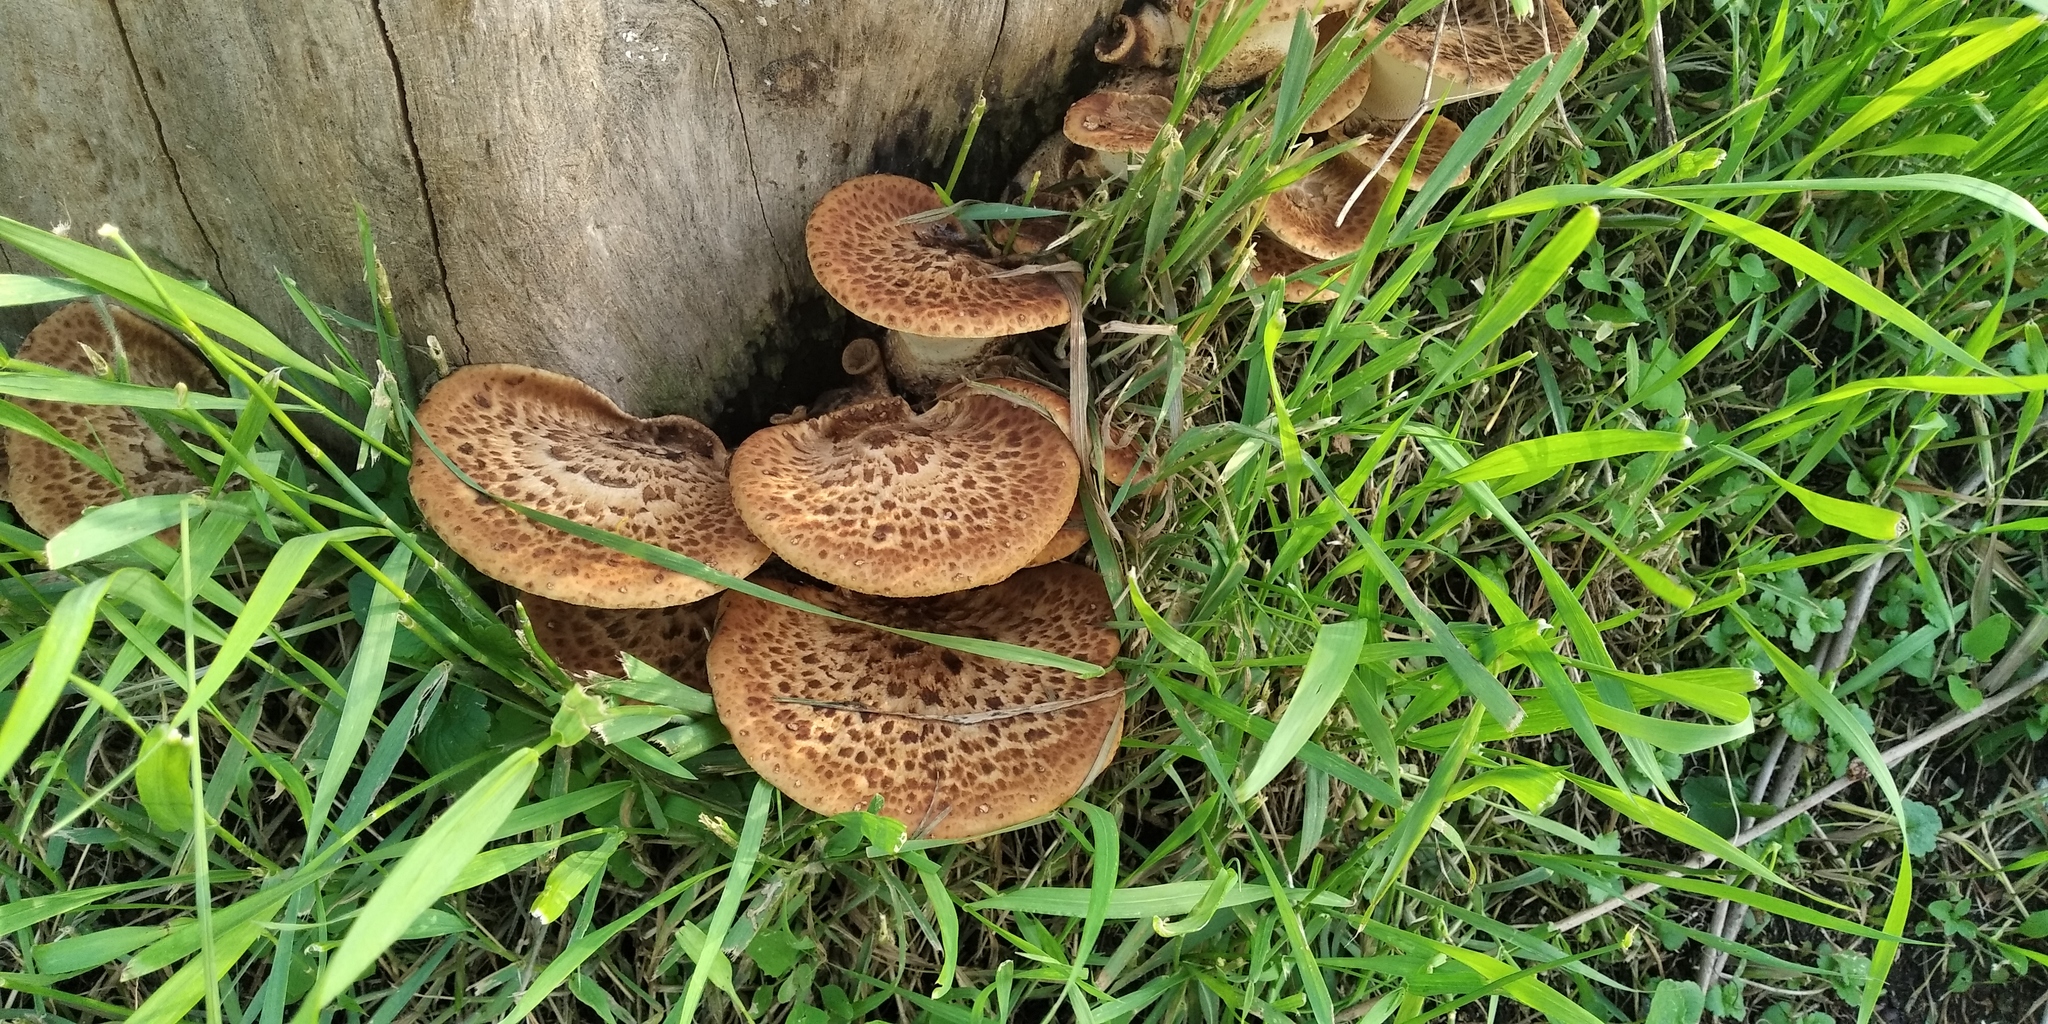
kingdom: Fungi
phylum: Basidiomycota
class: Agaricomycetes
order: Polyporales
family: Polyporaceae
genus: Cerioporus
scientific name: Cerioporus squamosus
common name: Dryad's saddle
